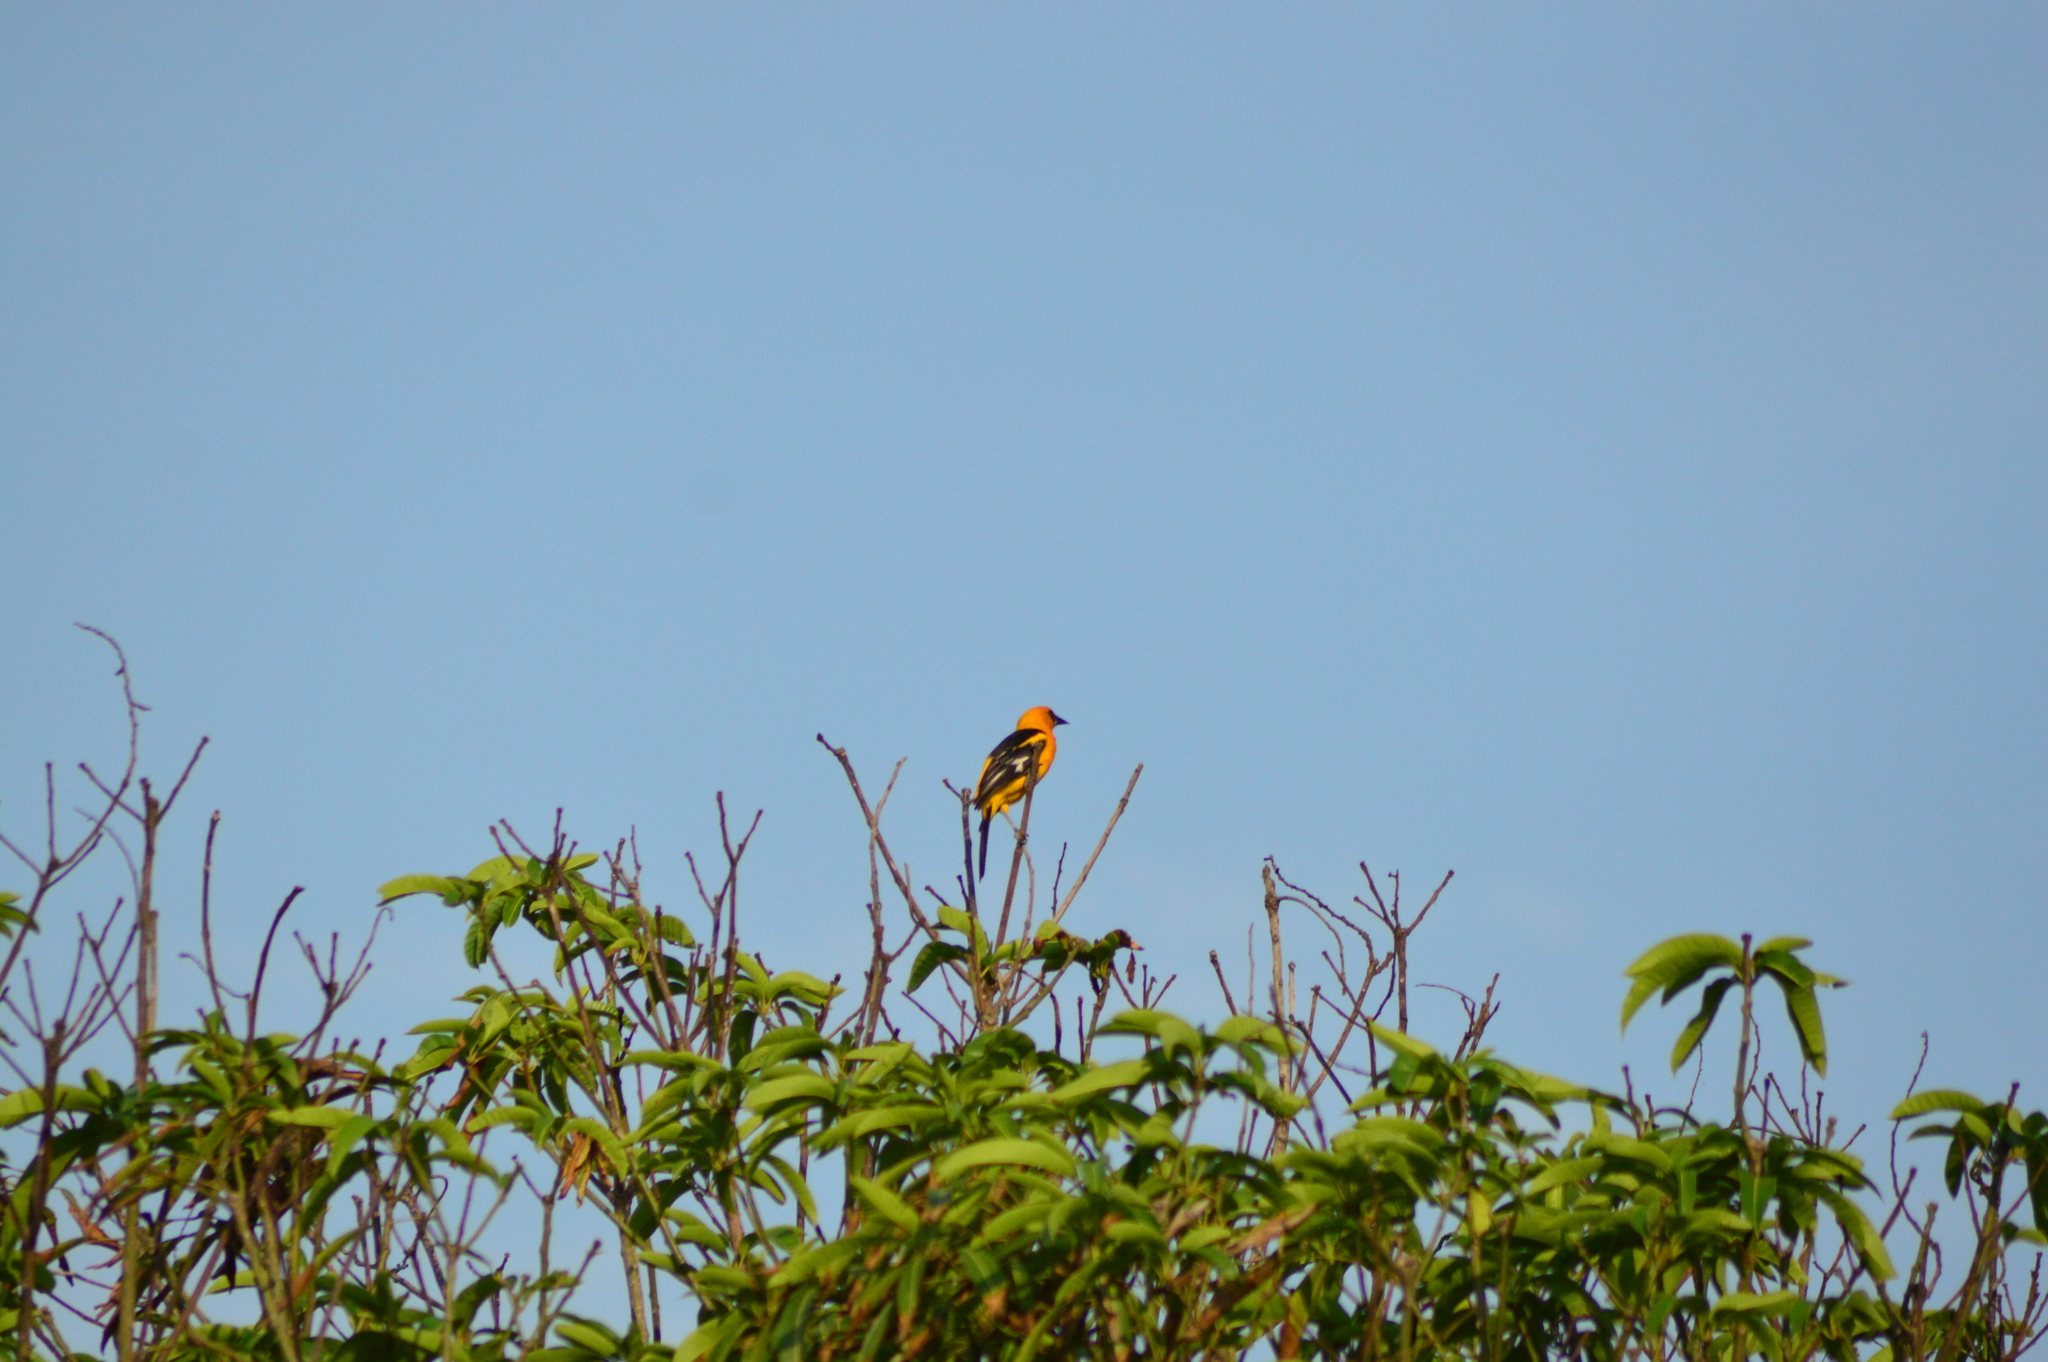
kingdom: Animalia
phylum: Chordata
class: Aves
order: Passeriformes
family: Icteridae
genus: Icterus
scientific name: Icterus gularis
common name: Altamira oriole
